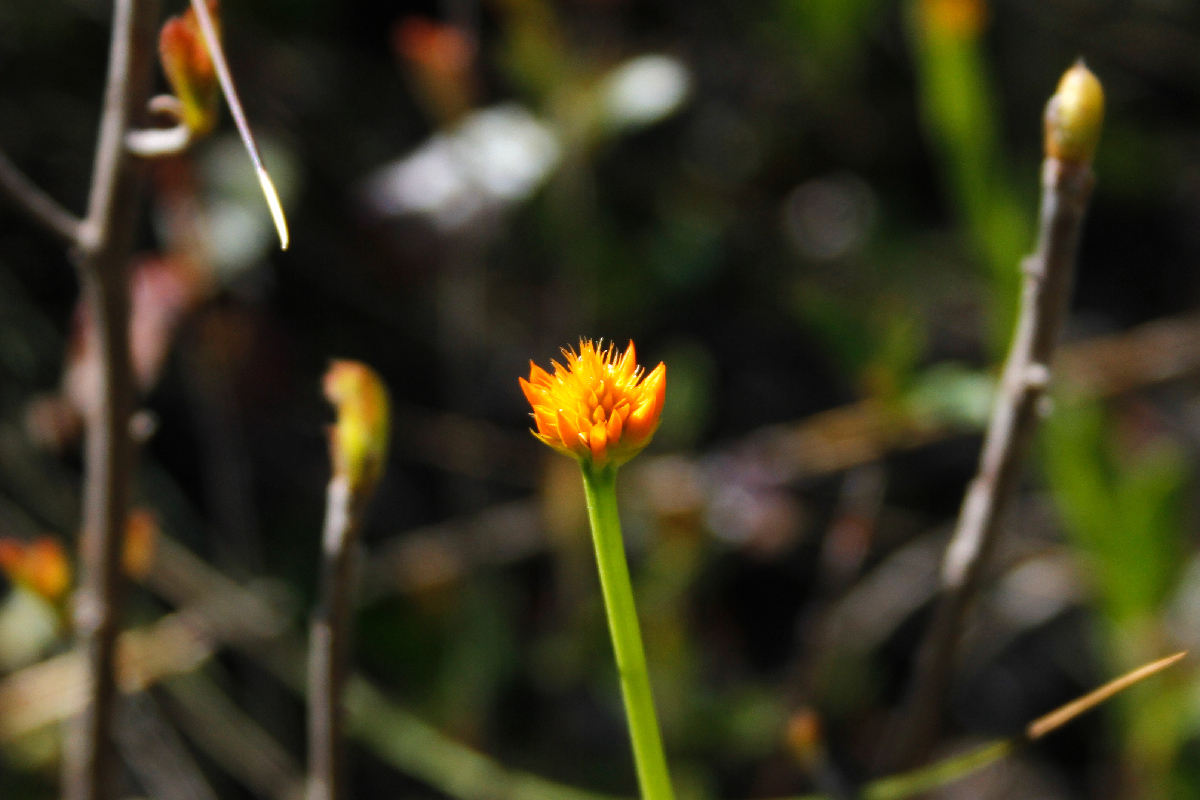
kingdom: Plantae
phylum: Tracheophyta
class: Magnoliopsida
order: Fabales
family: Polygalaceae
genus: Polygala
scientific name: Polygala lutea
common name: Orange milkwort
